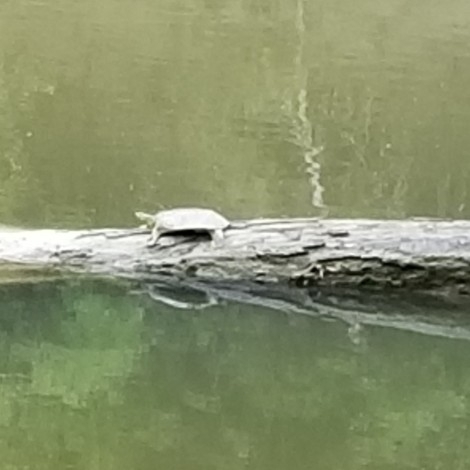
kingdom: Animalia
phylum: Chordata
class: Testudines
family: Trionychidae
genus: Apalone
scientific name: Apalone spinifera
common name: Spiny softshell turtle
